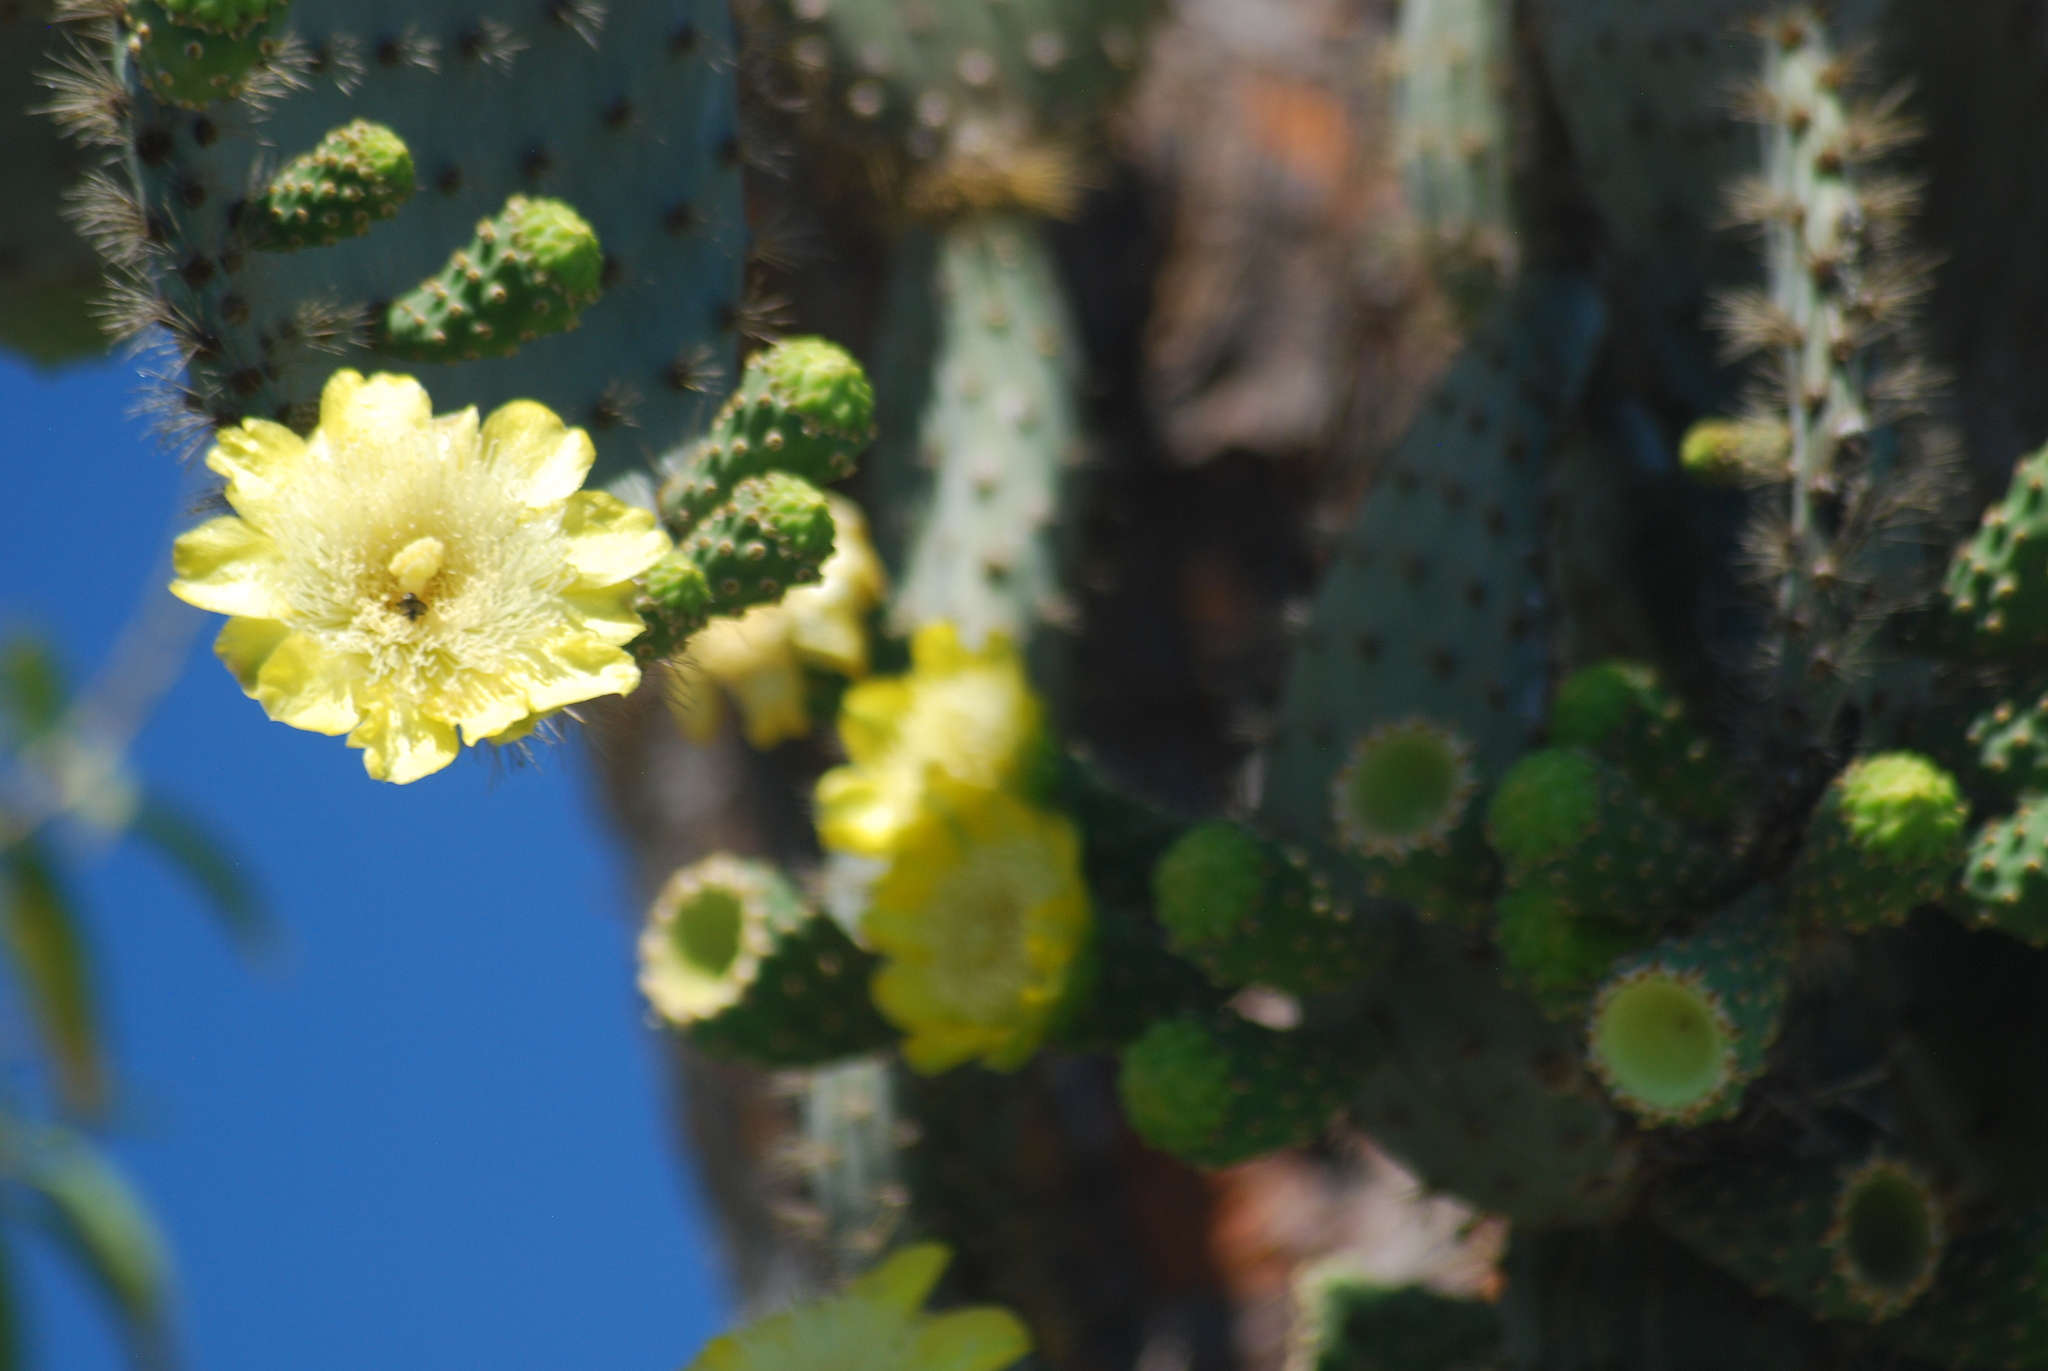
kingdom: Plantae
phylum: Tracheophyta
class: Magnoliopsida
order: Caryophyllales
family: Cactaceae
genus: Opuntia
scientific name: Opuntia galapageia
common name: Galápagos prickly pear
